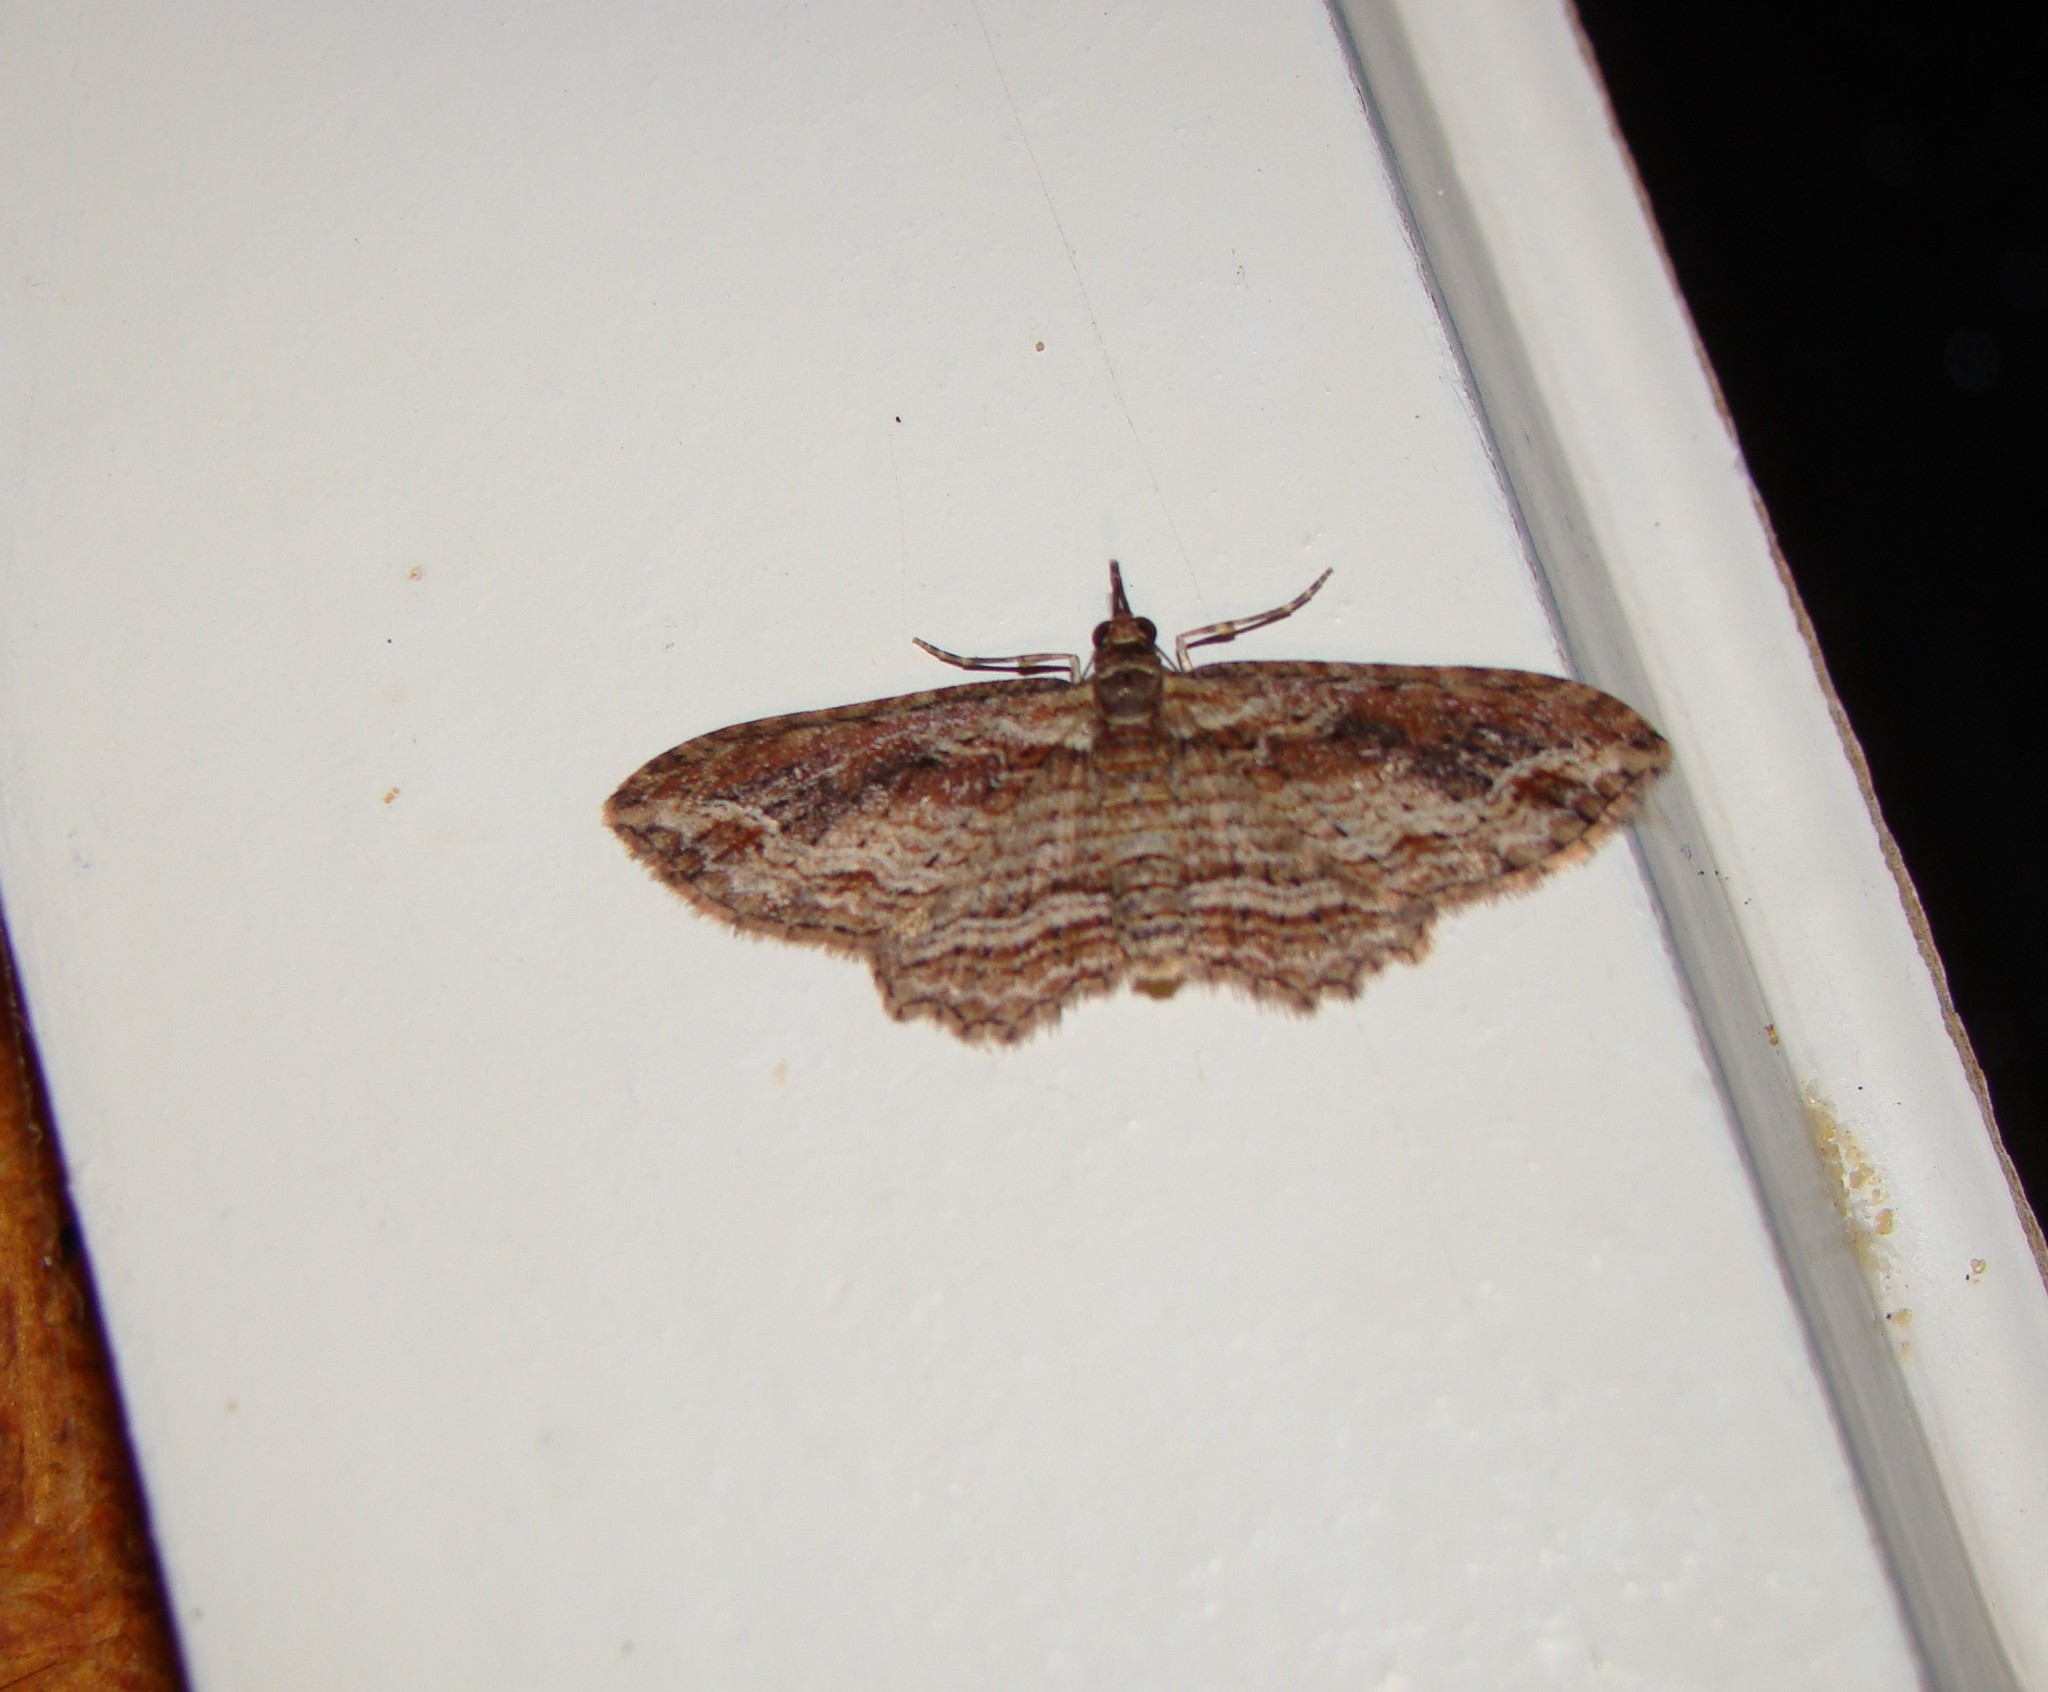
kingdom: Animalia
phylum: Arthropoda
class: Insecta
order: Lepidoptera
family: Geometridae
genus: Chloroclystis
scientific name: Chloroclystis filata
